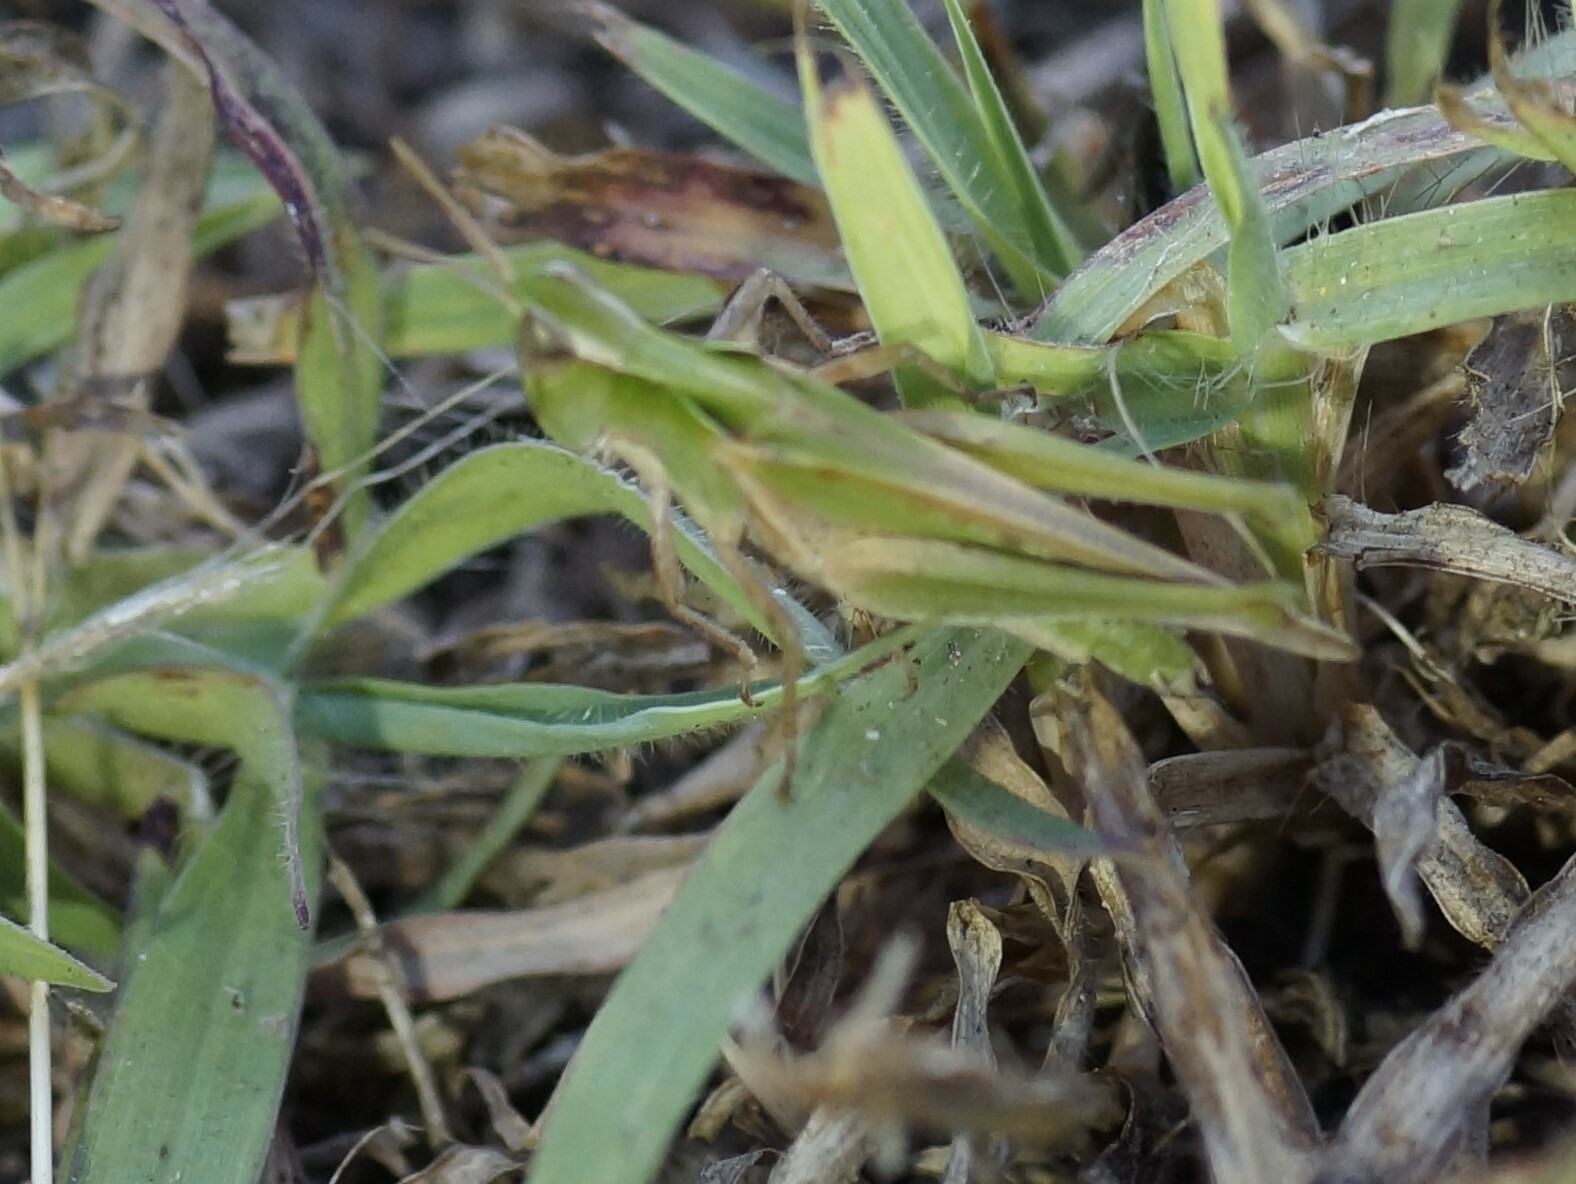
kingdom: Animalia
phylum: Arthropoda
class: Insecta
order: Orthoptera
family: Acrididae
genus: Calephorops
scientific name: Calephorops viridis
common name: Calephorops
